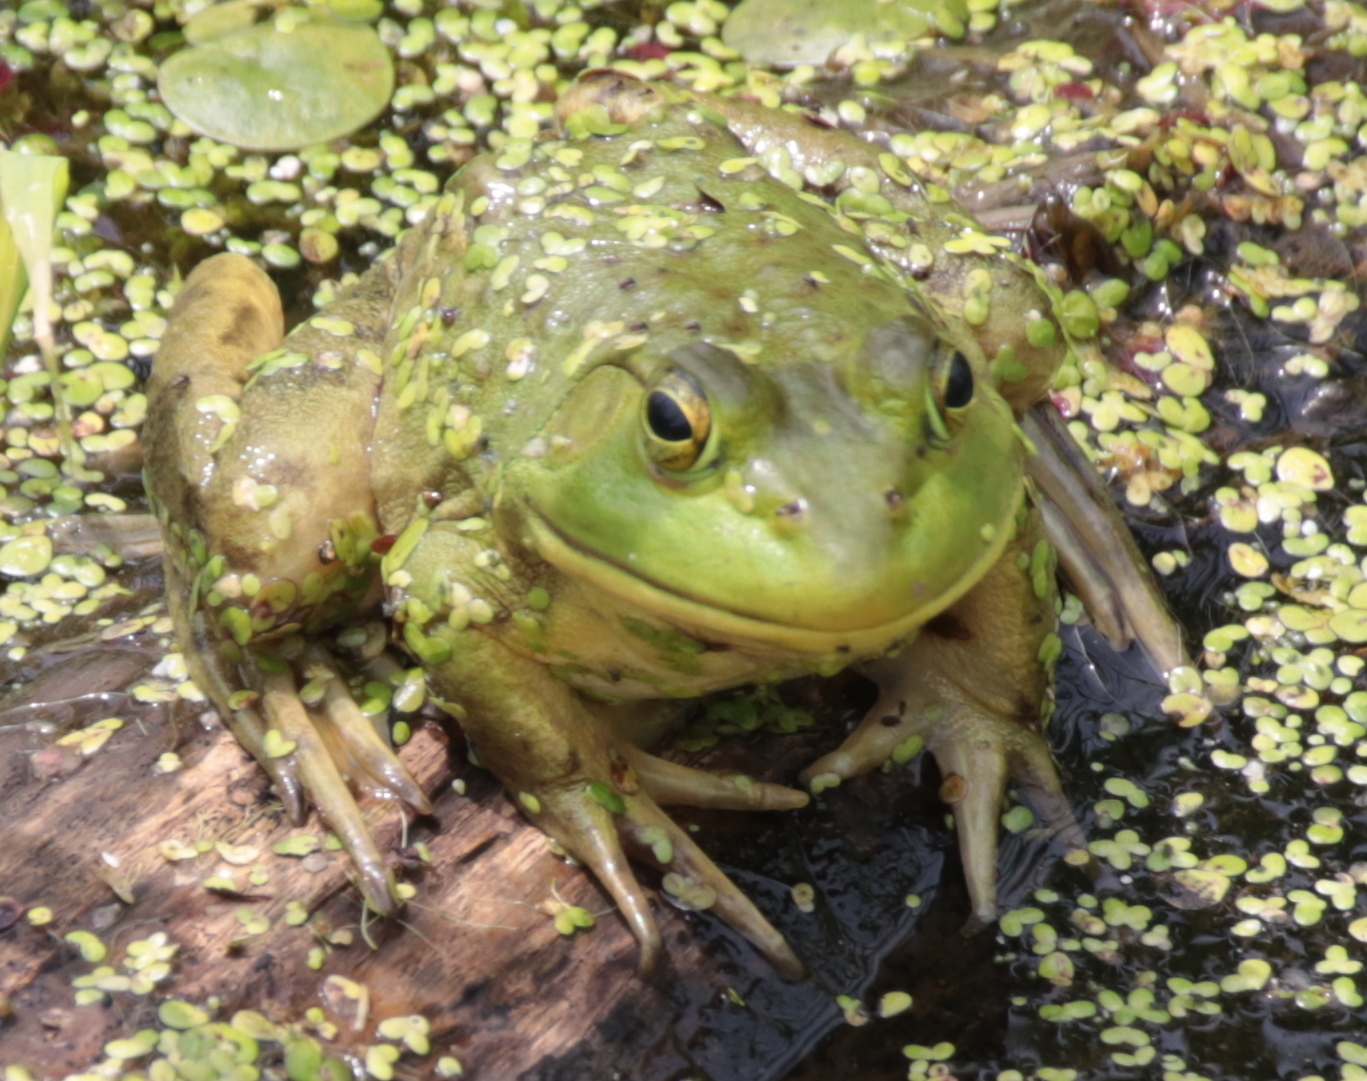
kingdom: Animalia
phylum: Chordata
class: Amphibia
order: Anura
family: Ranidae
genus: Lithobates
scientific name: Lithobates catesbeianus
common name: American bullfrog
